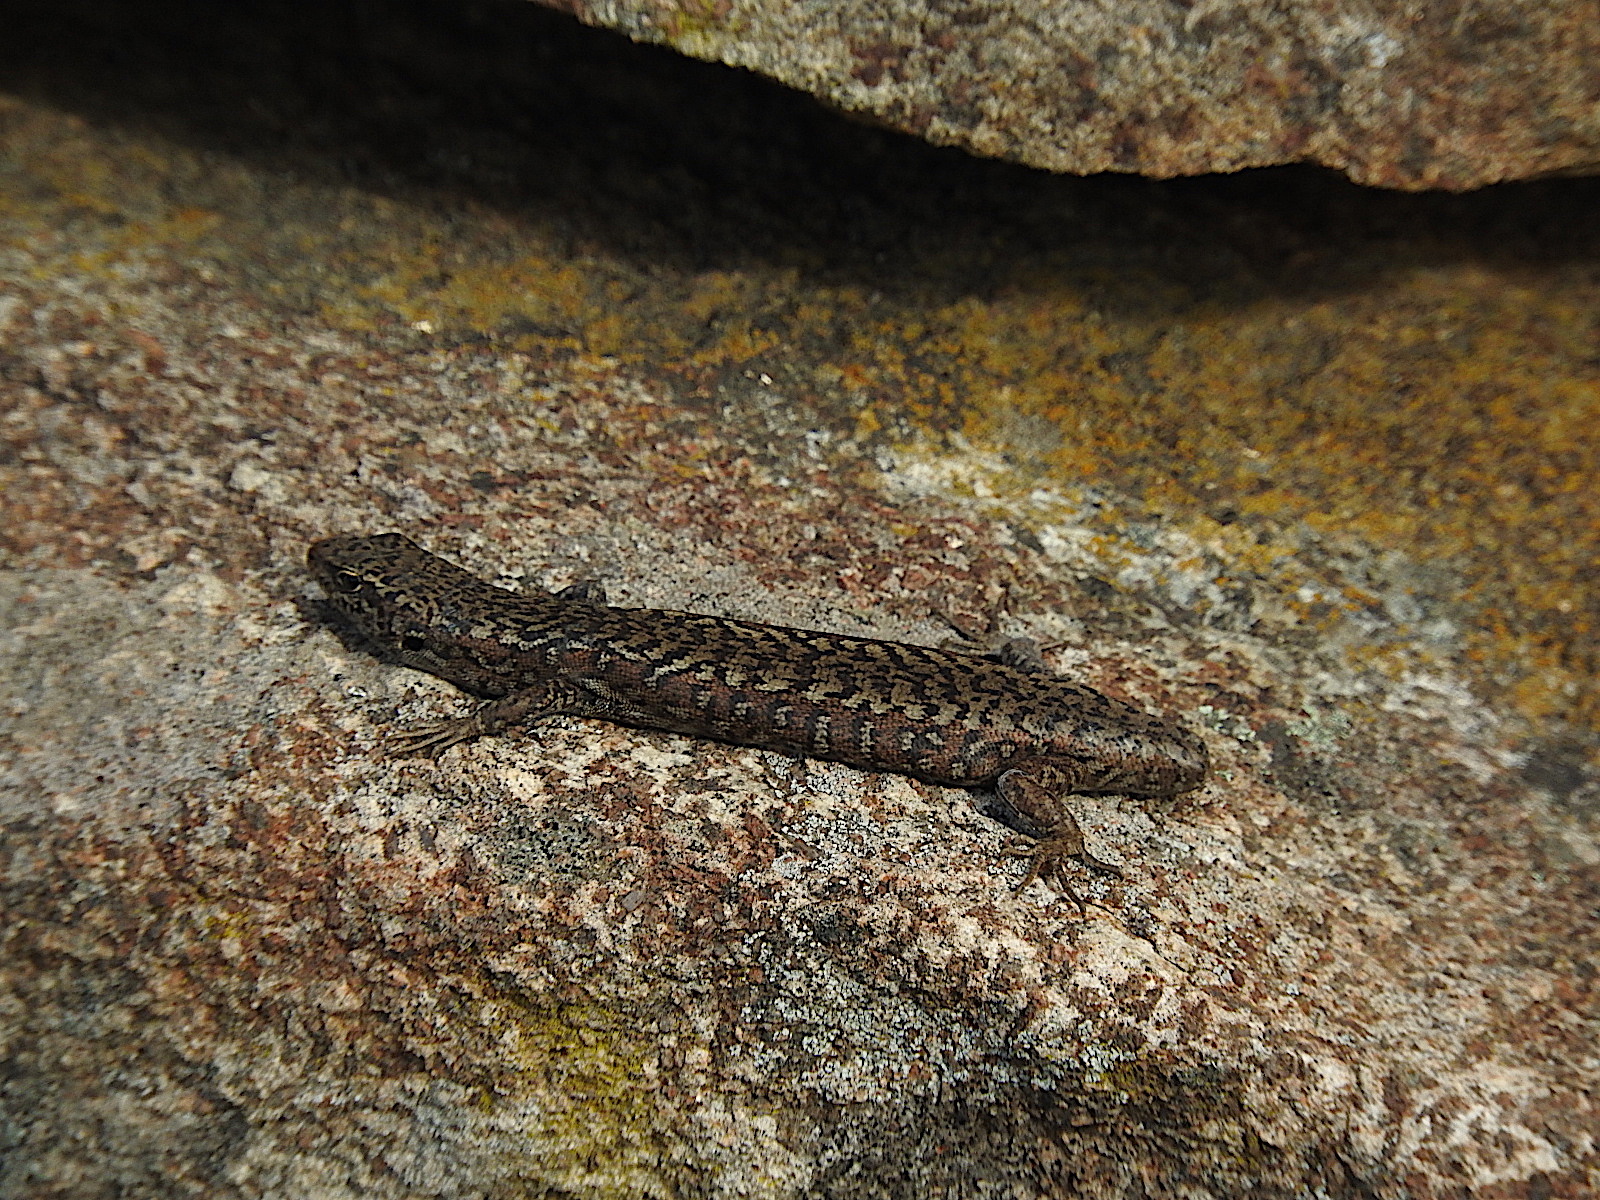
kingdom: Animalia
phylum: Chordata
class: Squamata
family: Scincidae
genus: Carinascincus
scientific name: Carinascincus ocellatus
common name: Ocellated cool-skink
